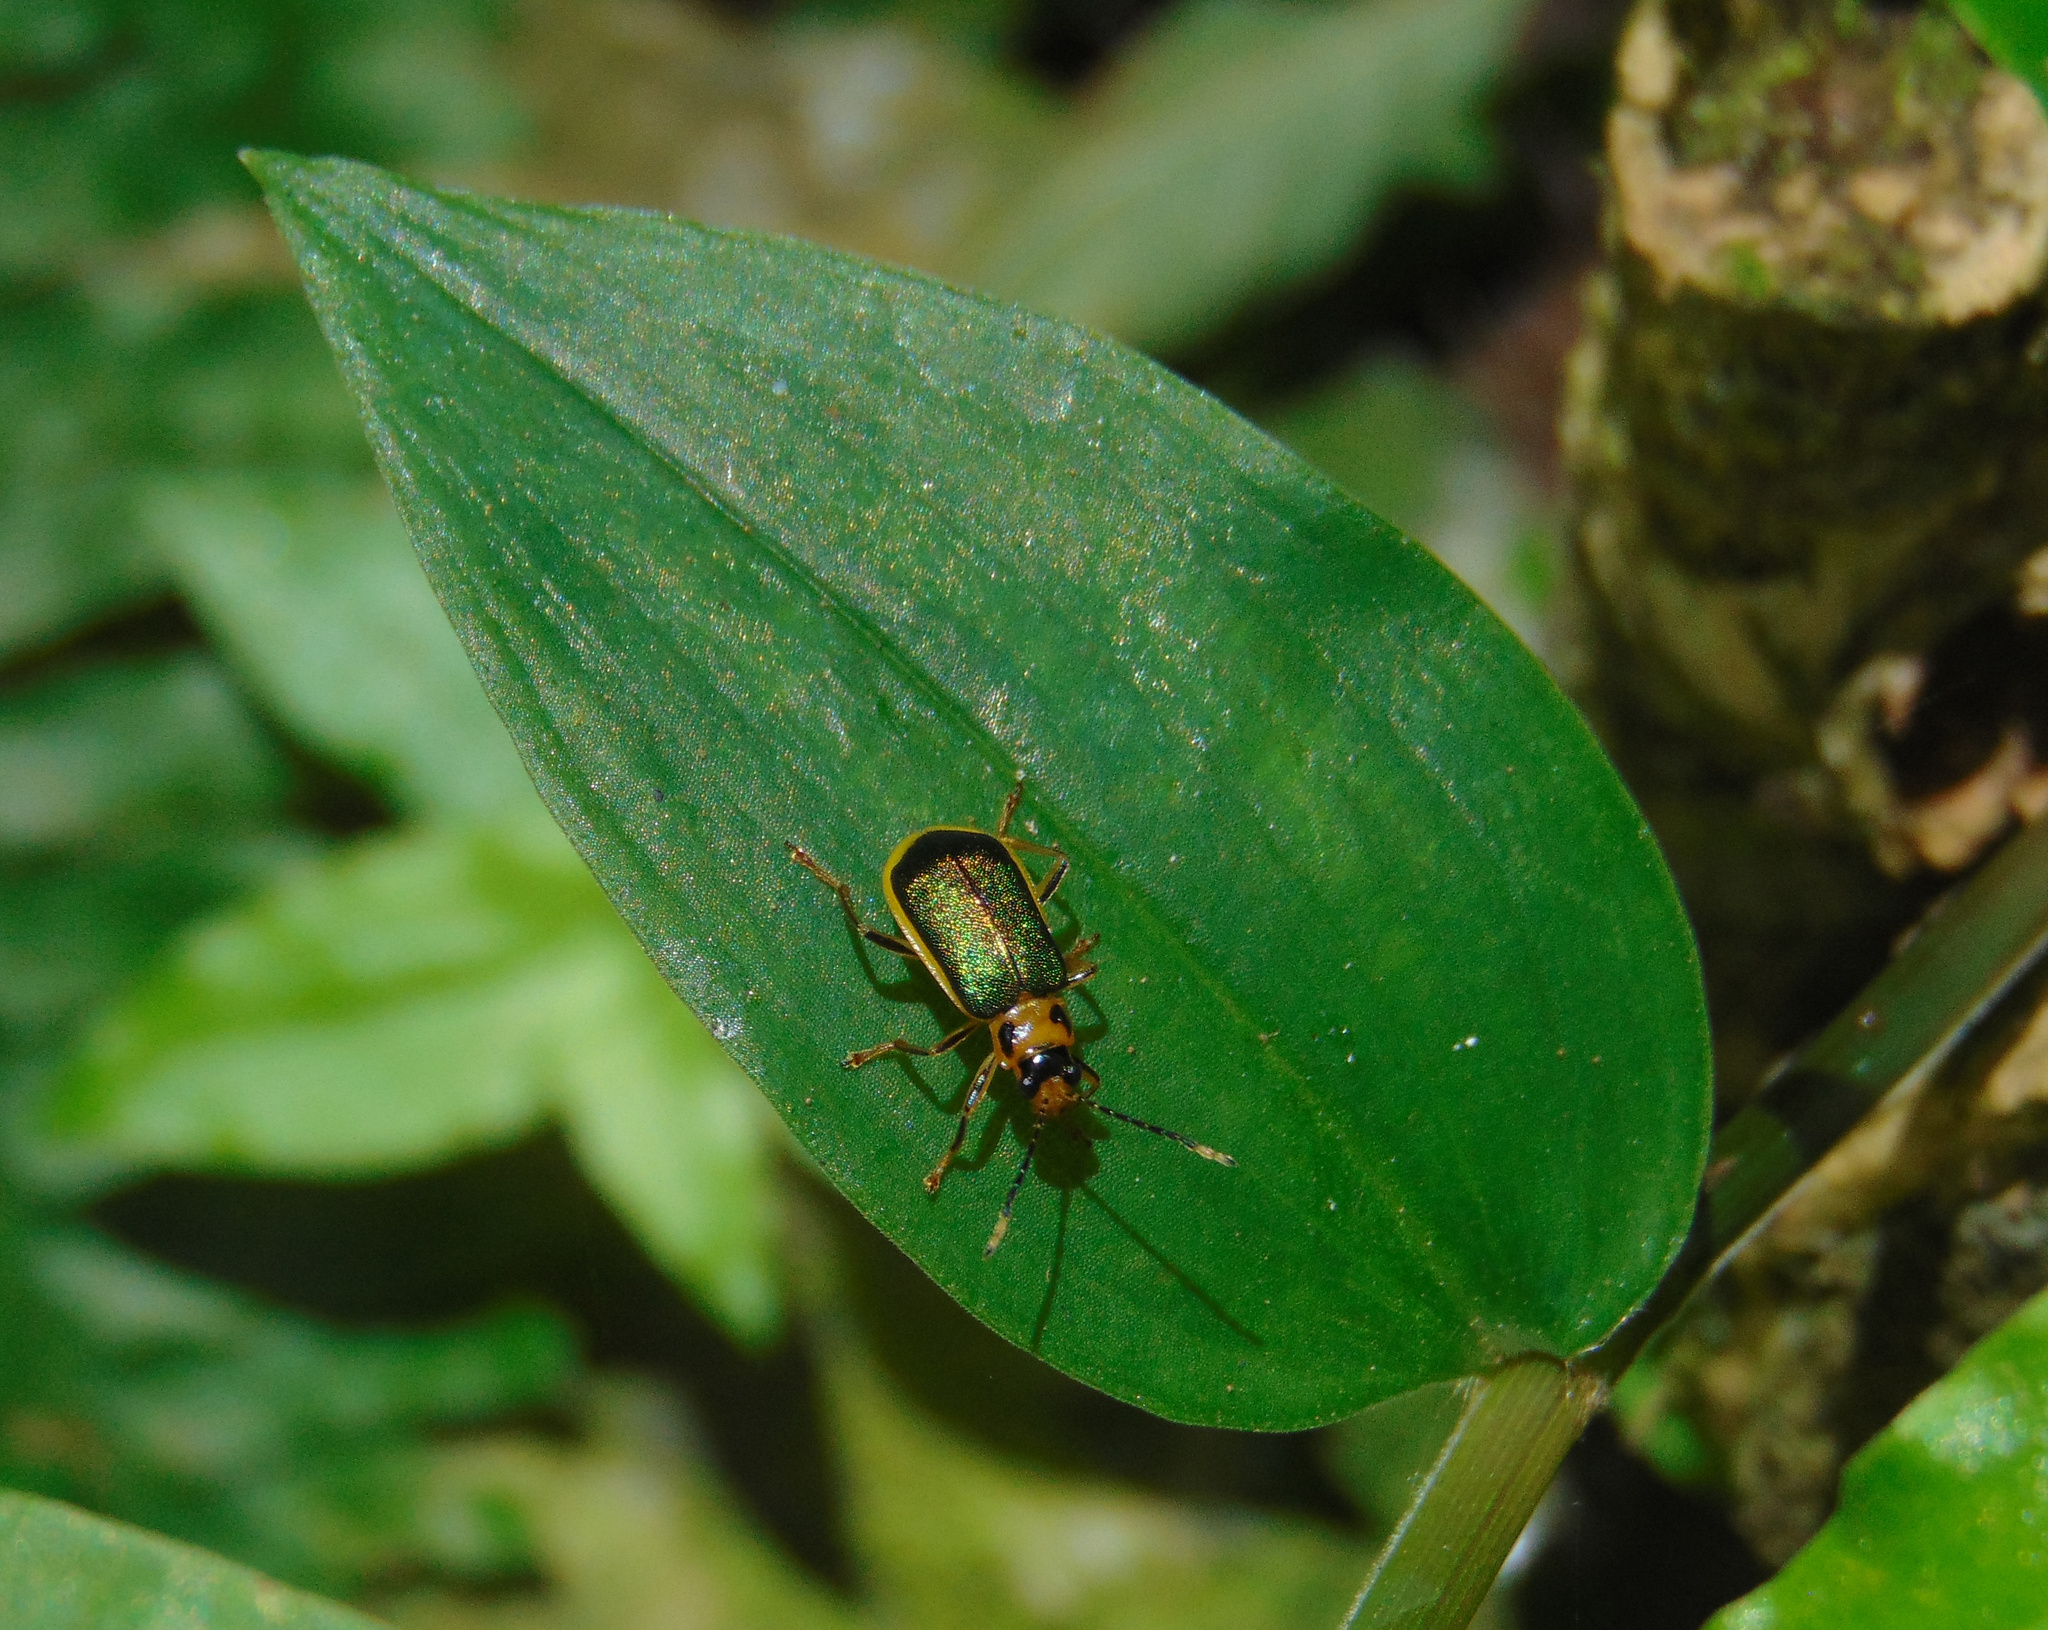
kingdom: Animalia
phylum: Arthropoda
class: Insecta
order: Coleoptera
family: Chrysomelidae
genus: Buckibrotica
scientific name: Buckibrotica
